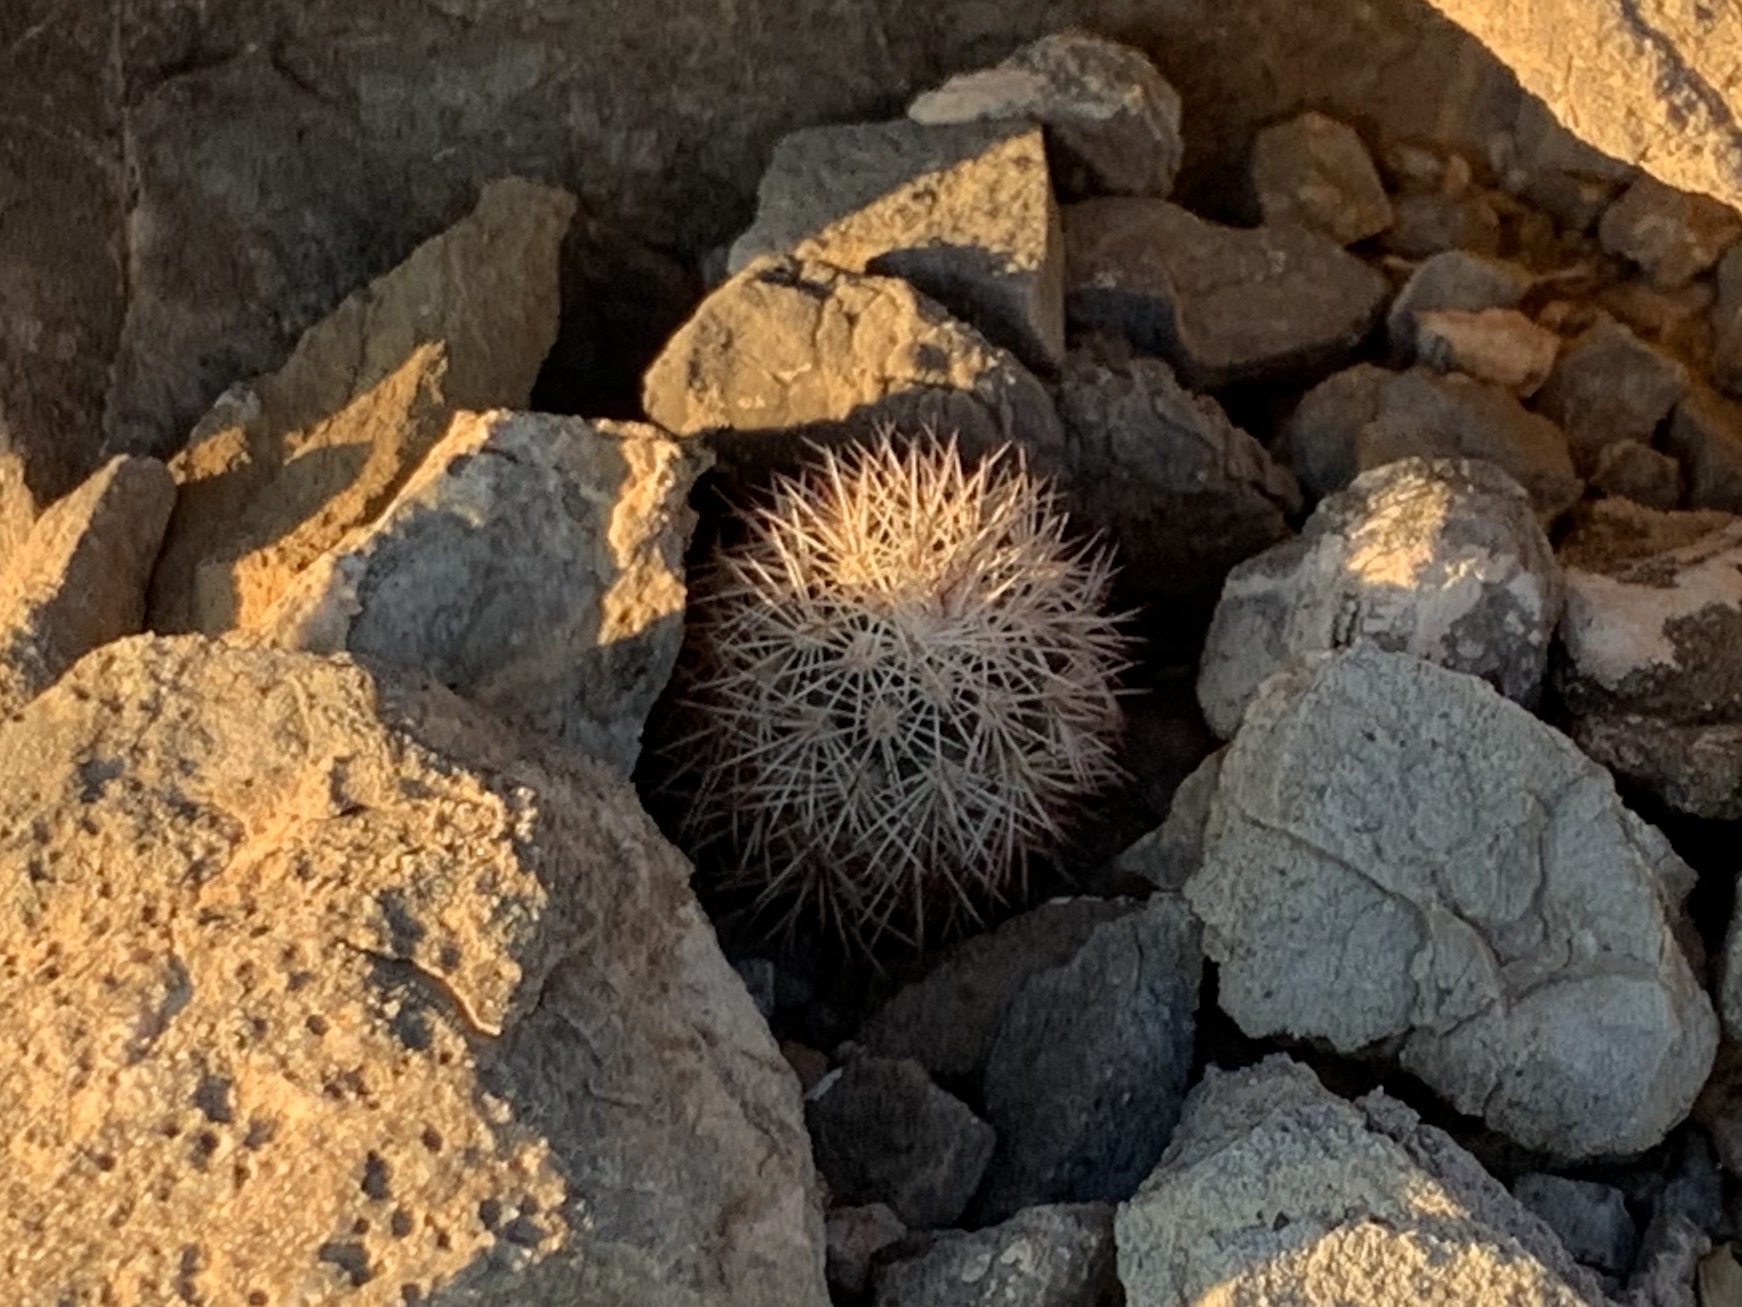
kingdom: Plantae
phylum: Tracheophyta
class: Magnoliopsida
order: Caryophyllales
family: Cactaceae
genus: Echinocereus
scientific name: Echinocereus dasyacanthus
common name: Spiny hedgehog cactus
